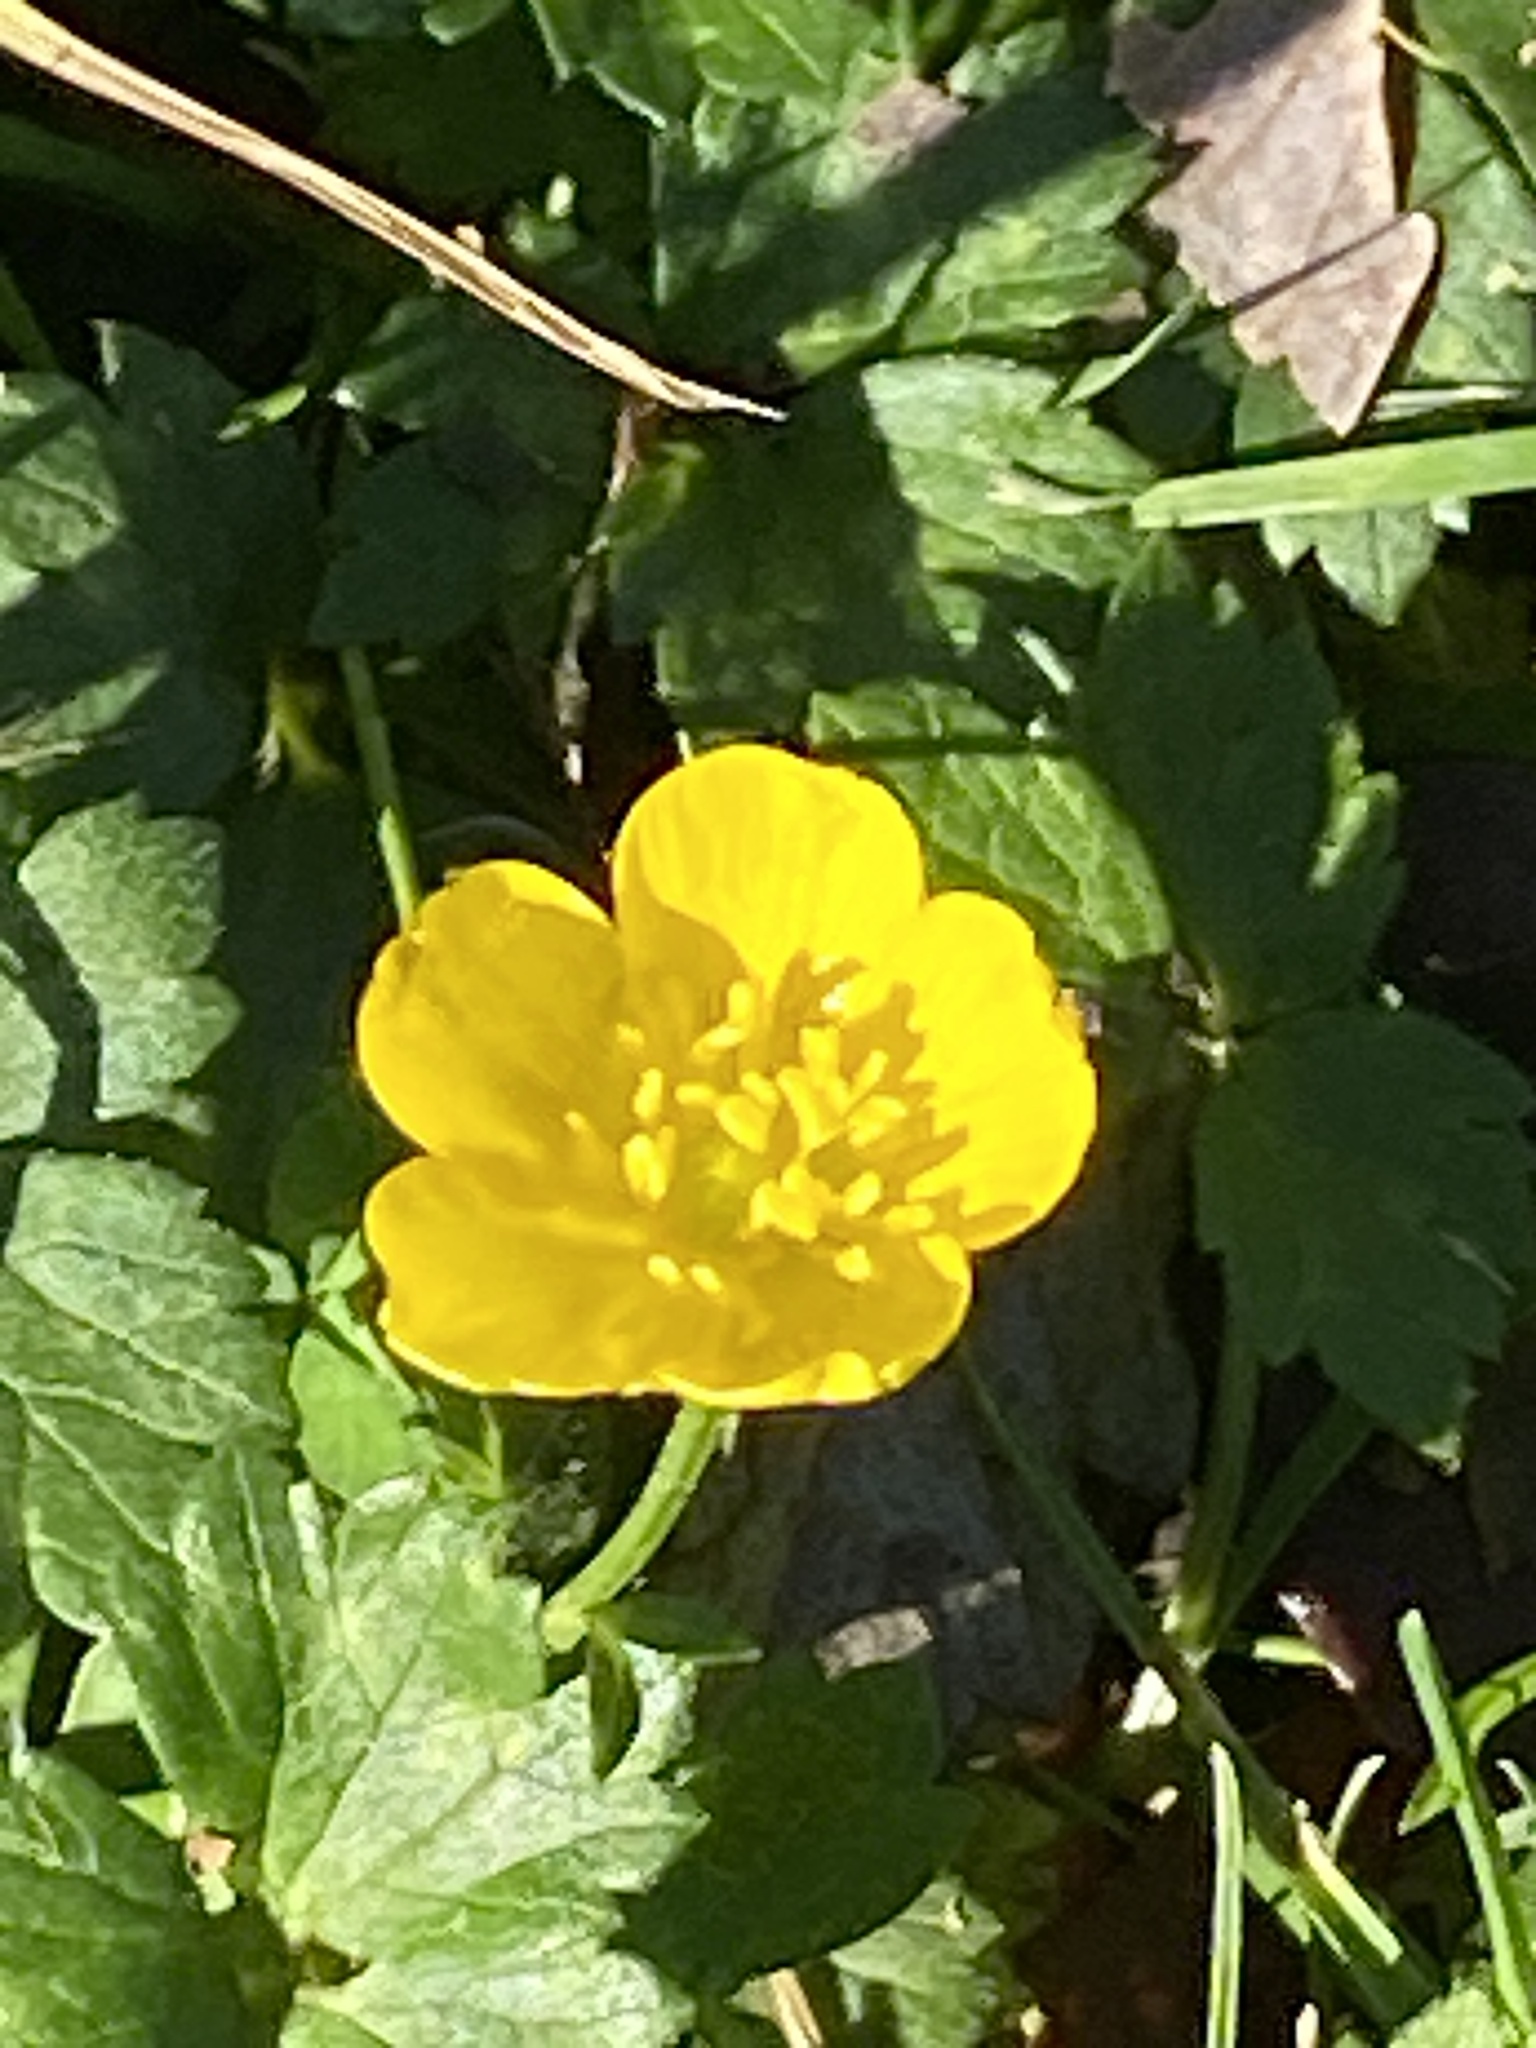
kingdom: Plantae
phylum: Tracheophyta
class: Magnoliopsida
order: Ranunculales
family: Ranunculaceae
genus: Ranunculus
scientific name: Ranunculus repens
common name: Creeping buttercup
